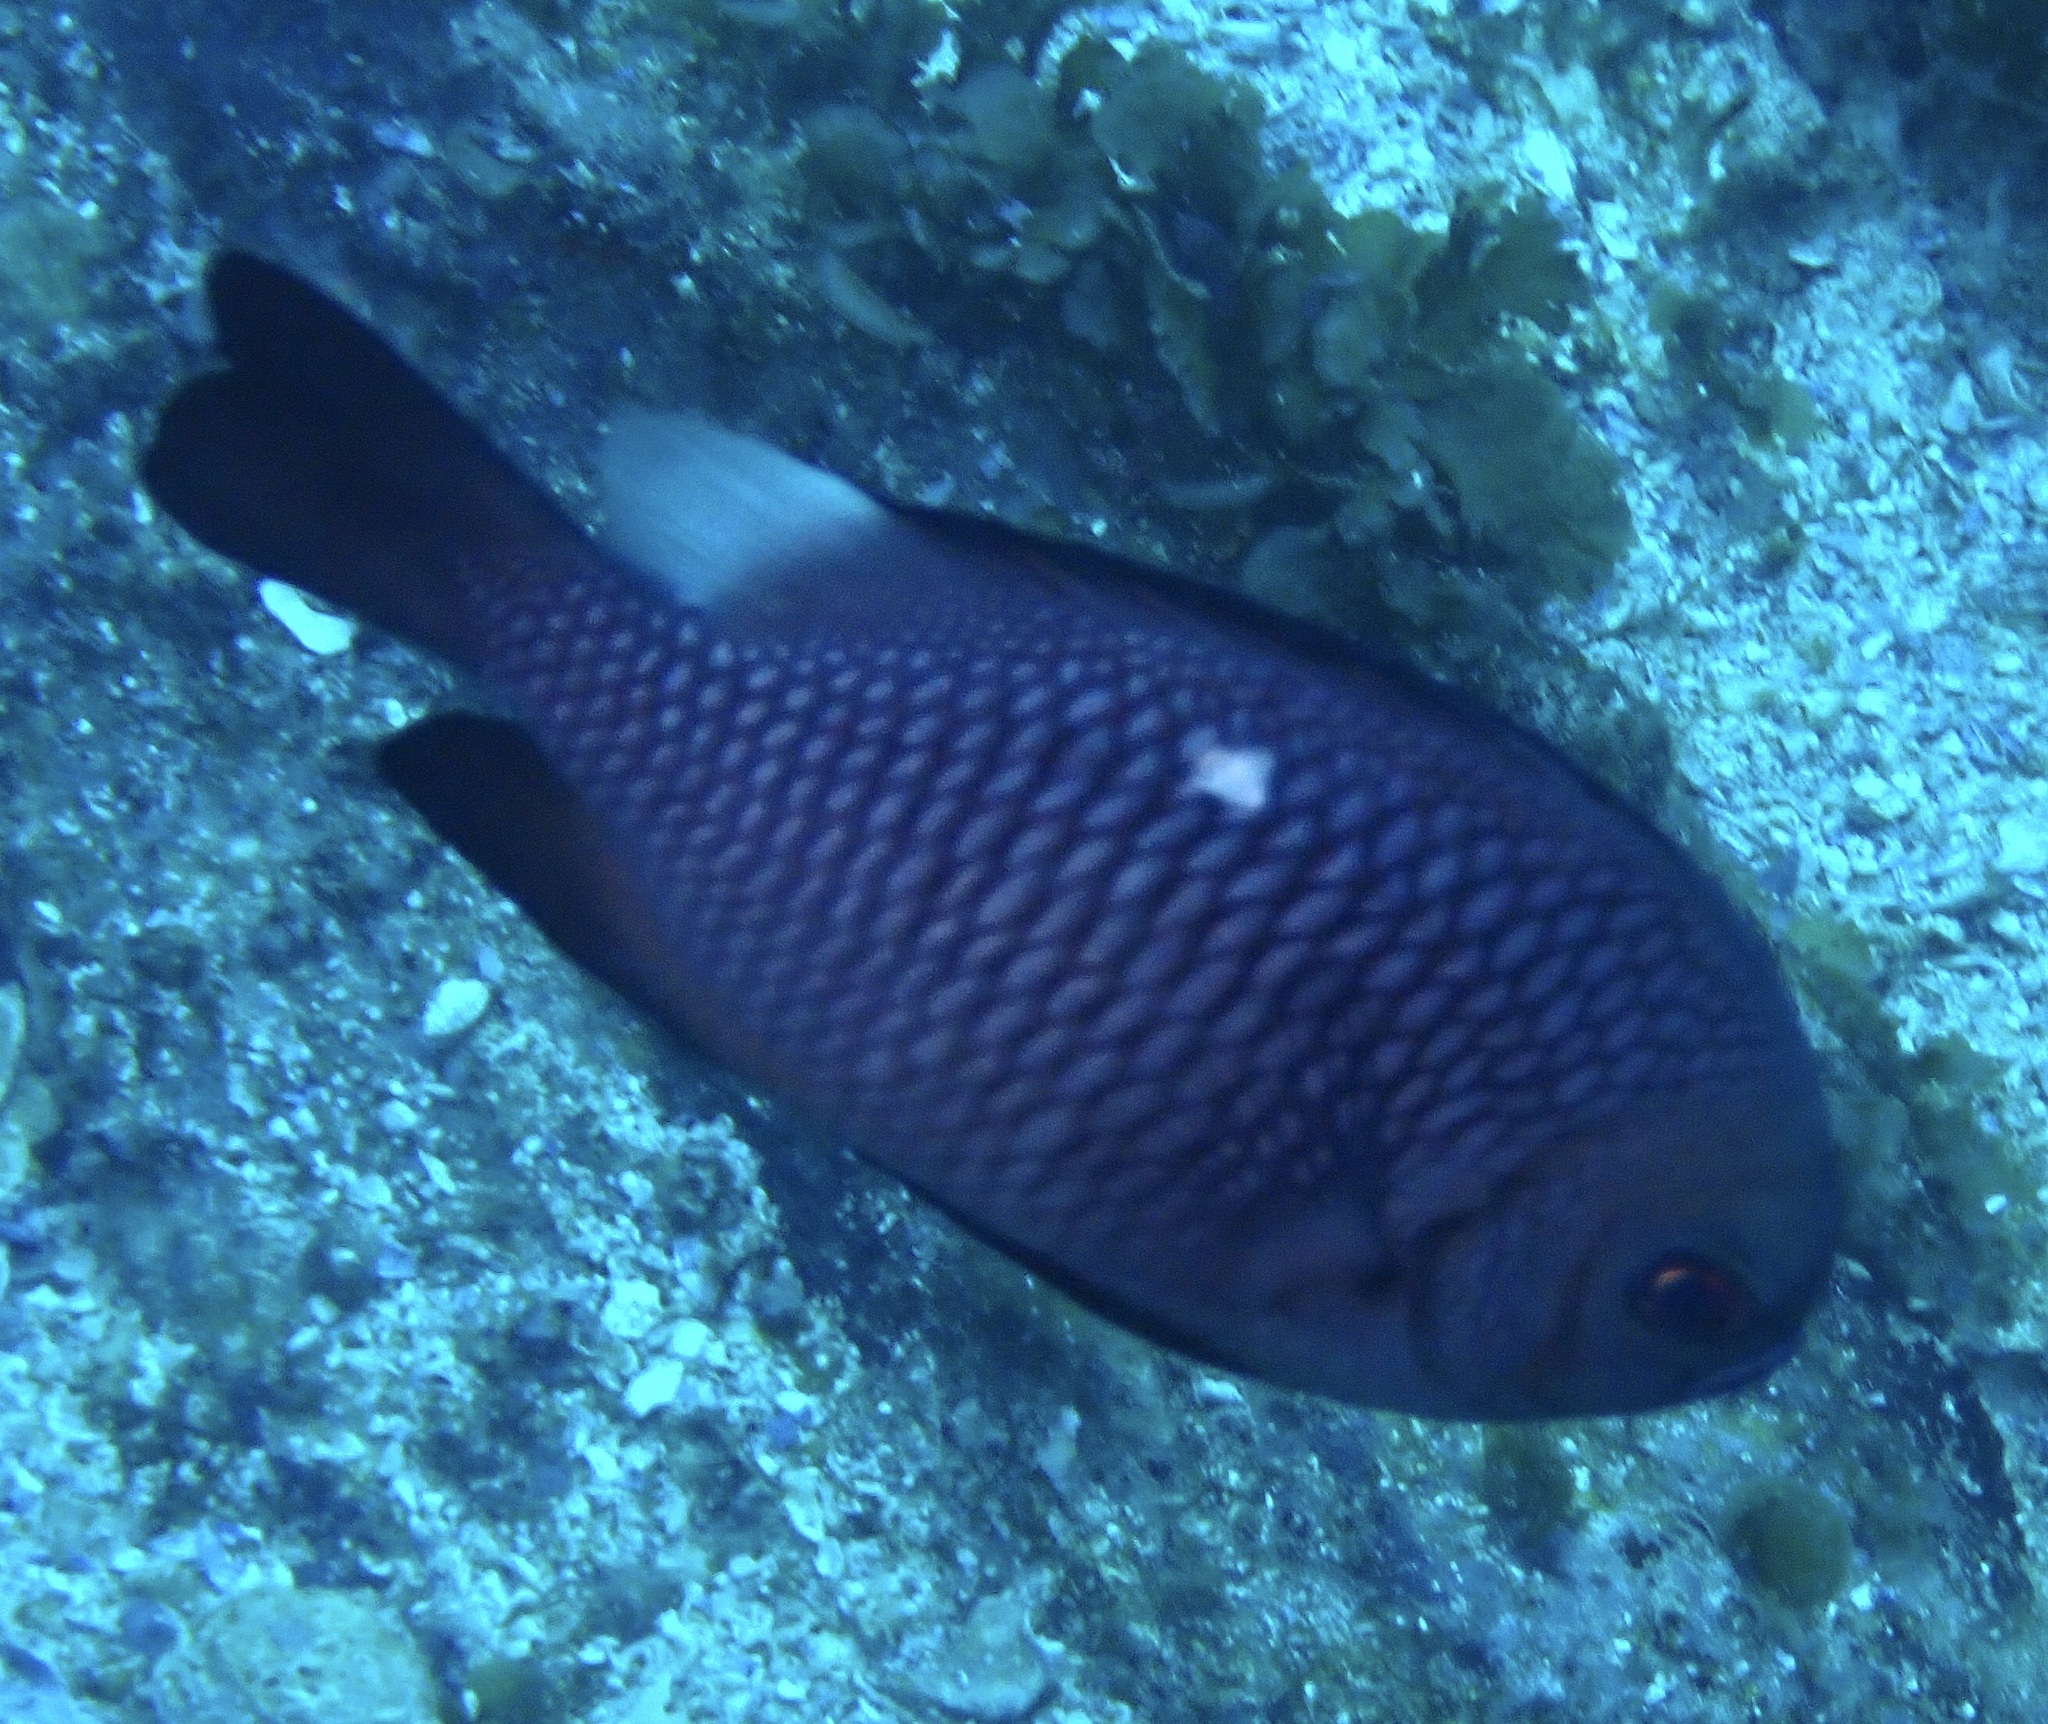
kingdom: Animalia
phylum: Chordata
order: Perciformes
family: Pomacentridae
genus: Dascyllus
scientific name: Dascyllus trimaculatus
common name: Threespot dascyllus
